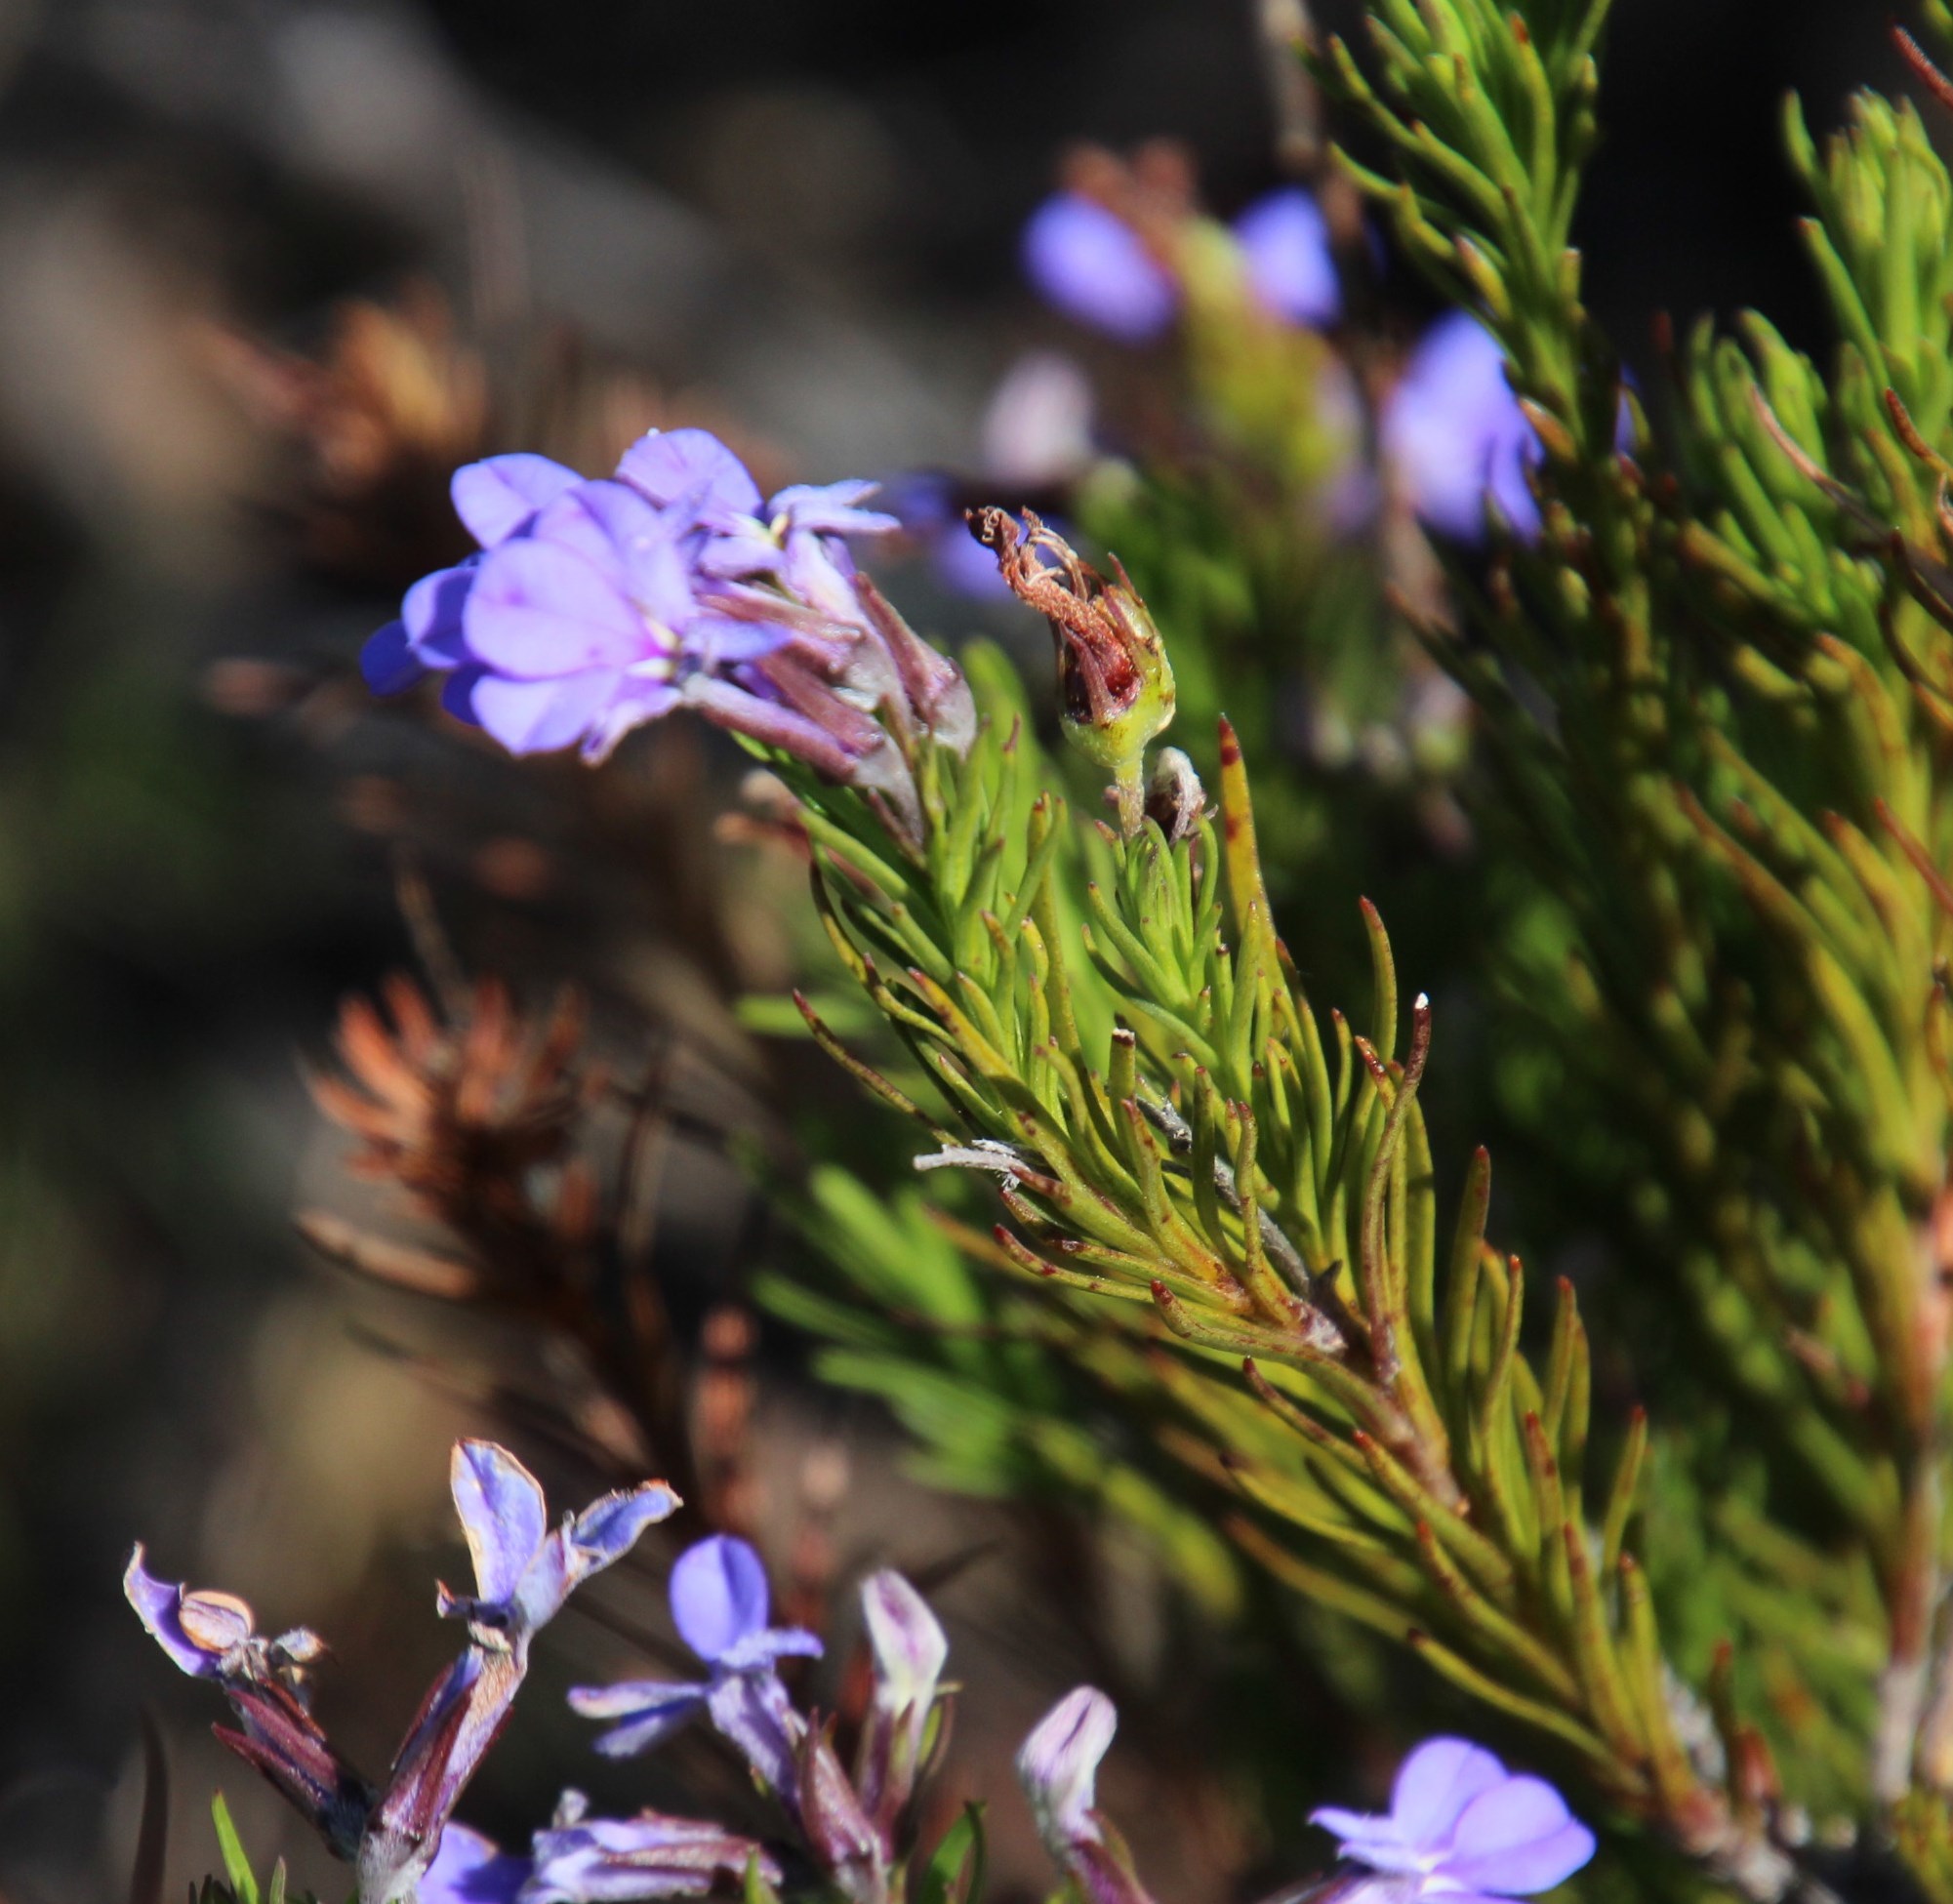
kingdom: Plantae
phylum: Tracheophyta
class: Magnoliopsida
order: Asterales
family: Campanulaceae
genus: Lobelia
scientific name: Lobelia pinifolia
